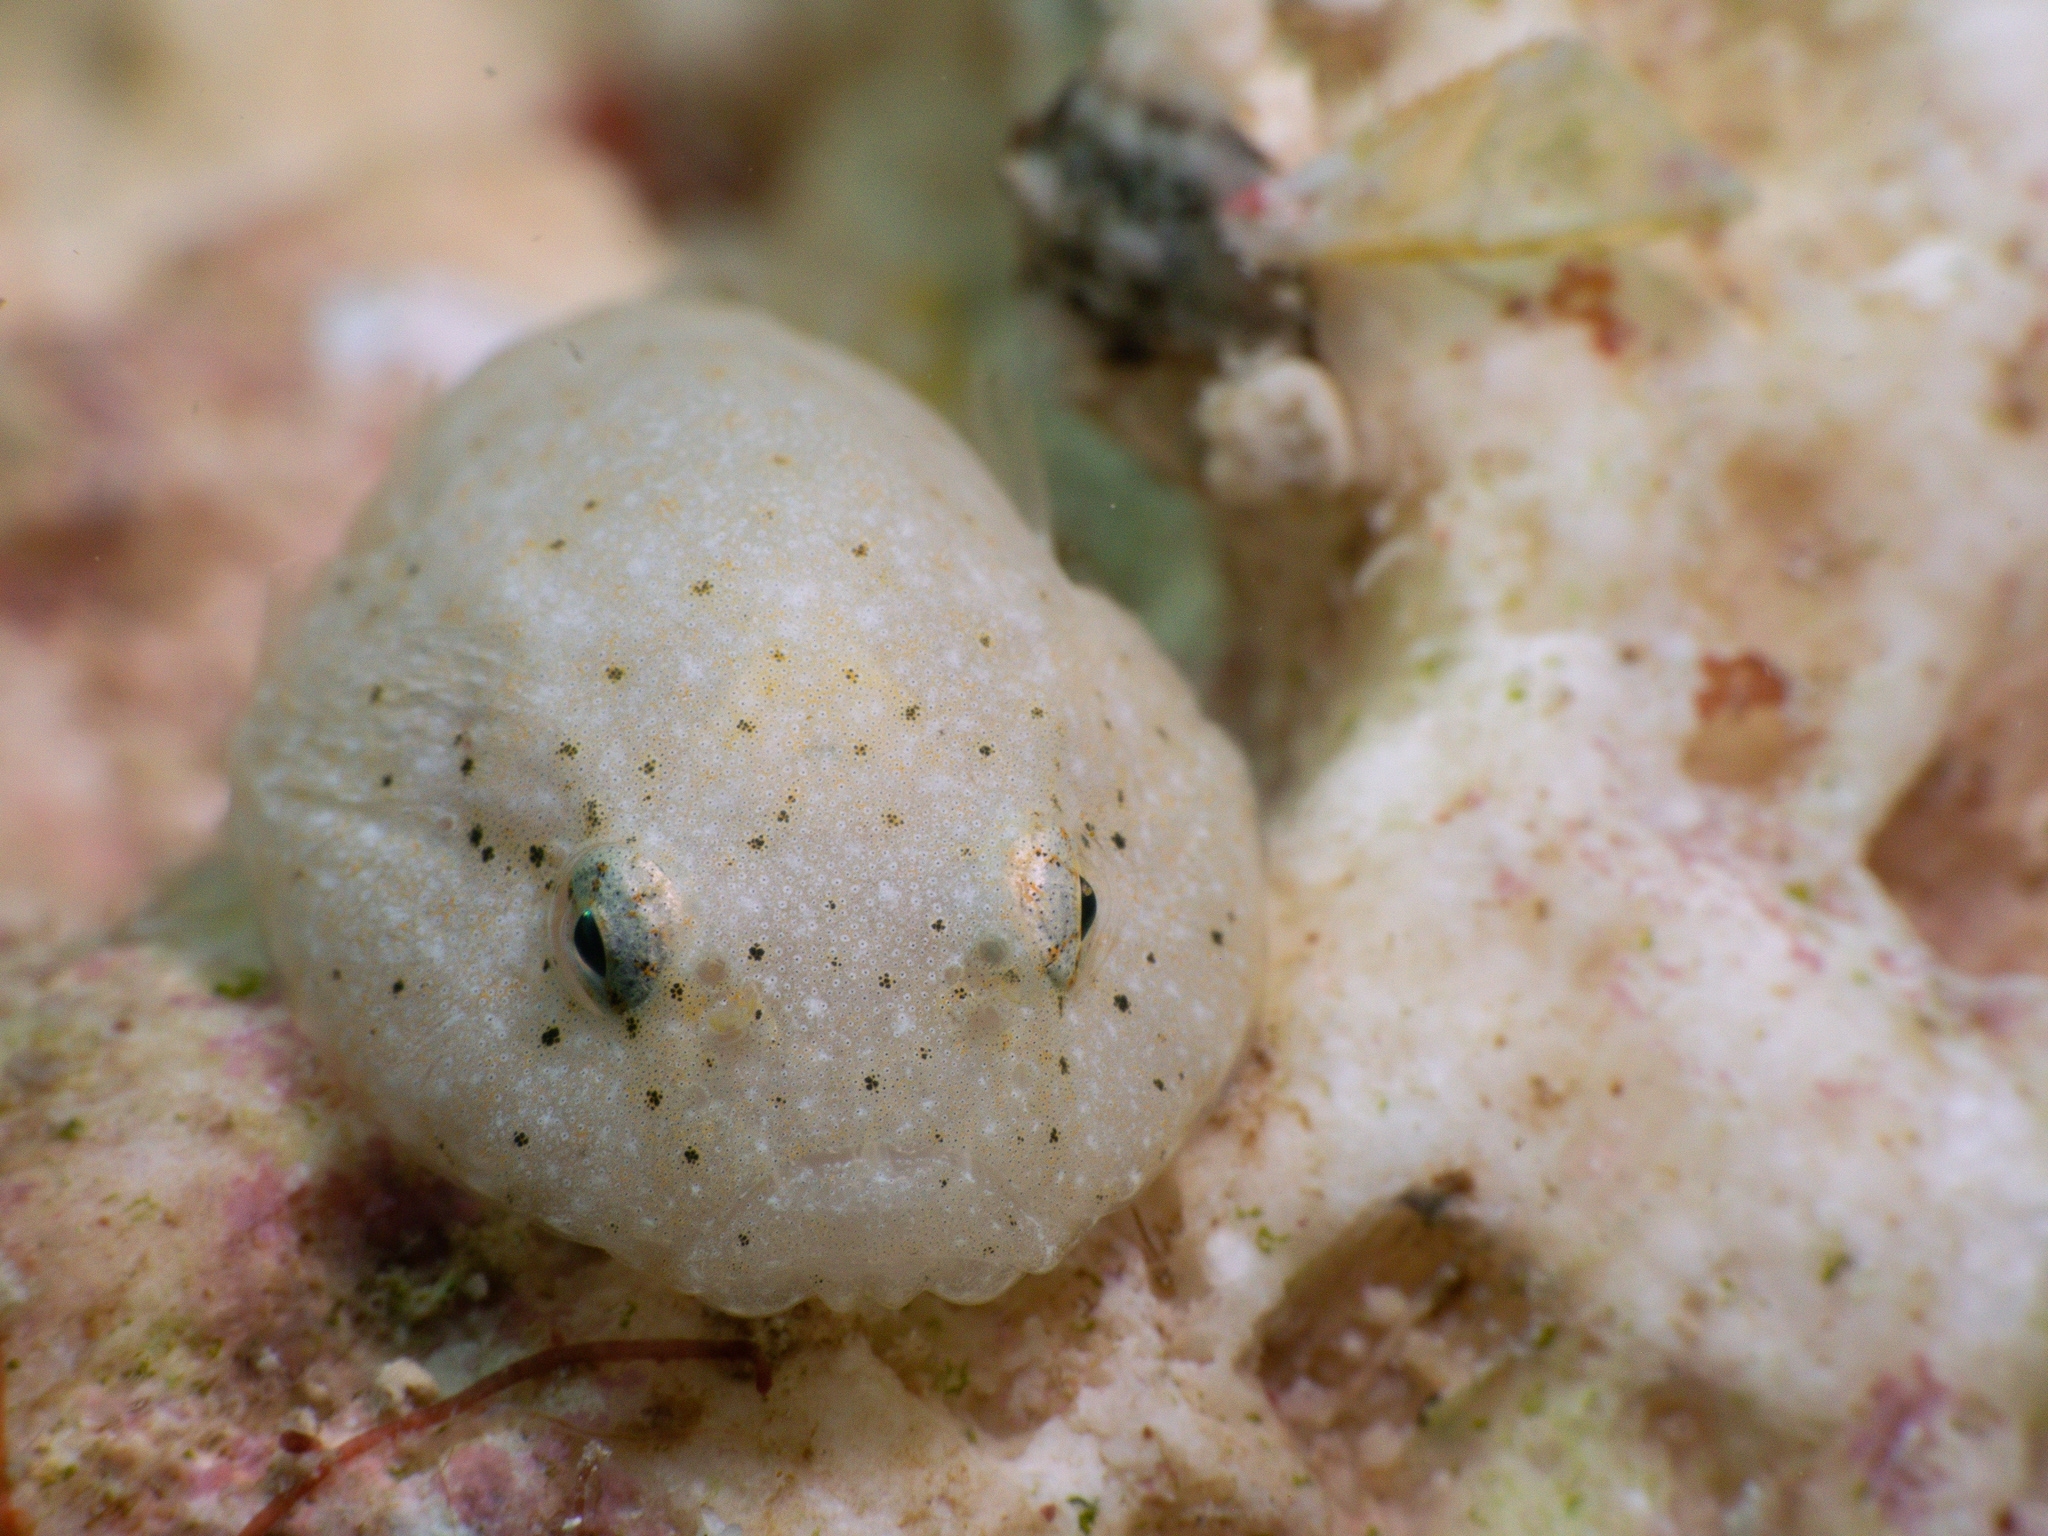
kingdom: Animalia
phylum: Chordata
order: Gobiesociformes
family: Gobiesocidae
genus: Gobiesox
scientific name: Gobiesox punctulatus
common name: Stippled clingfish
